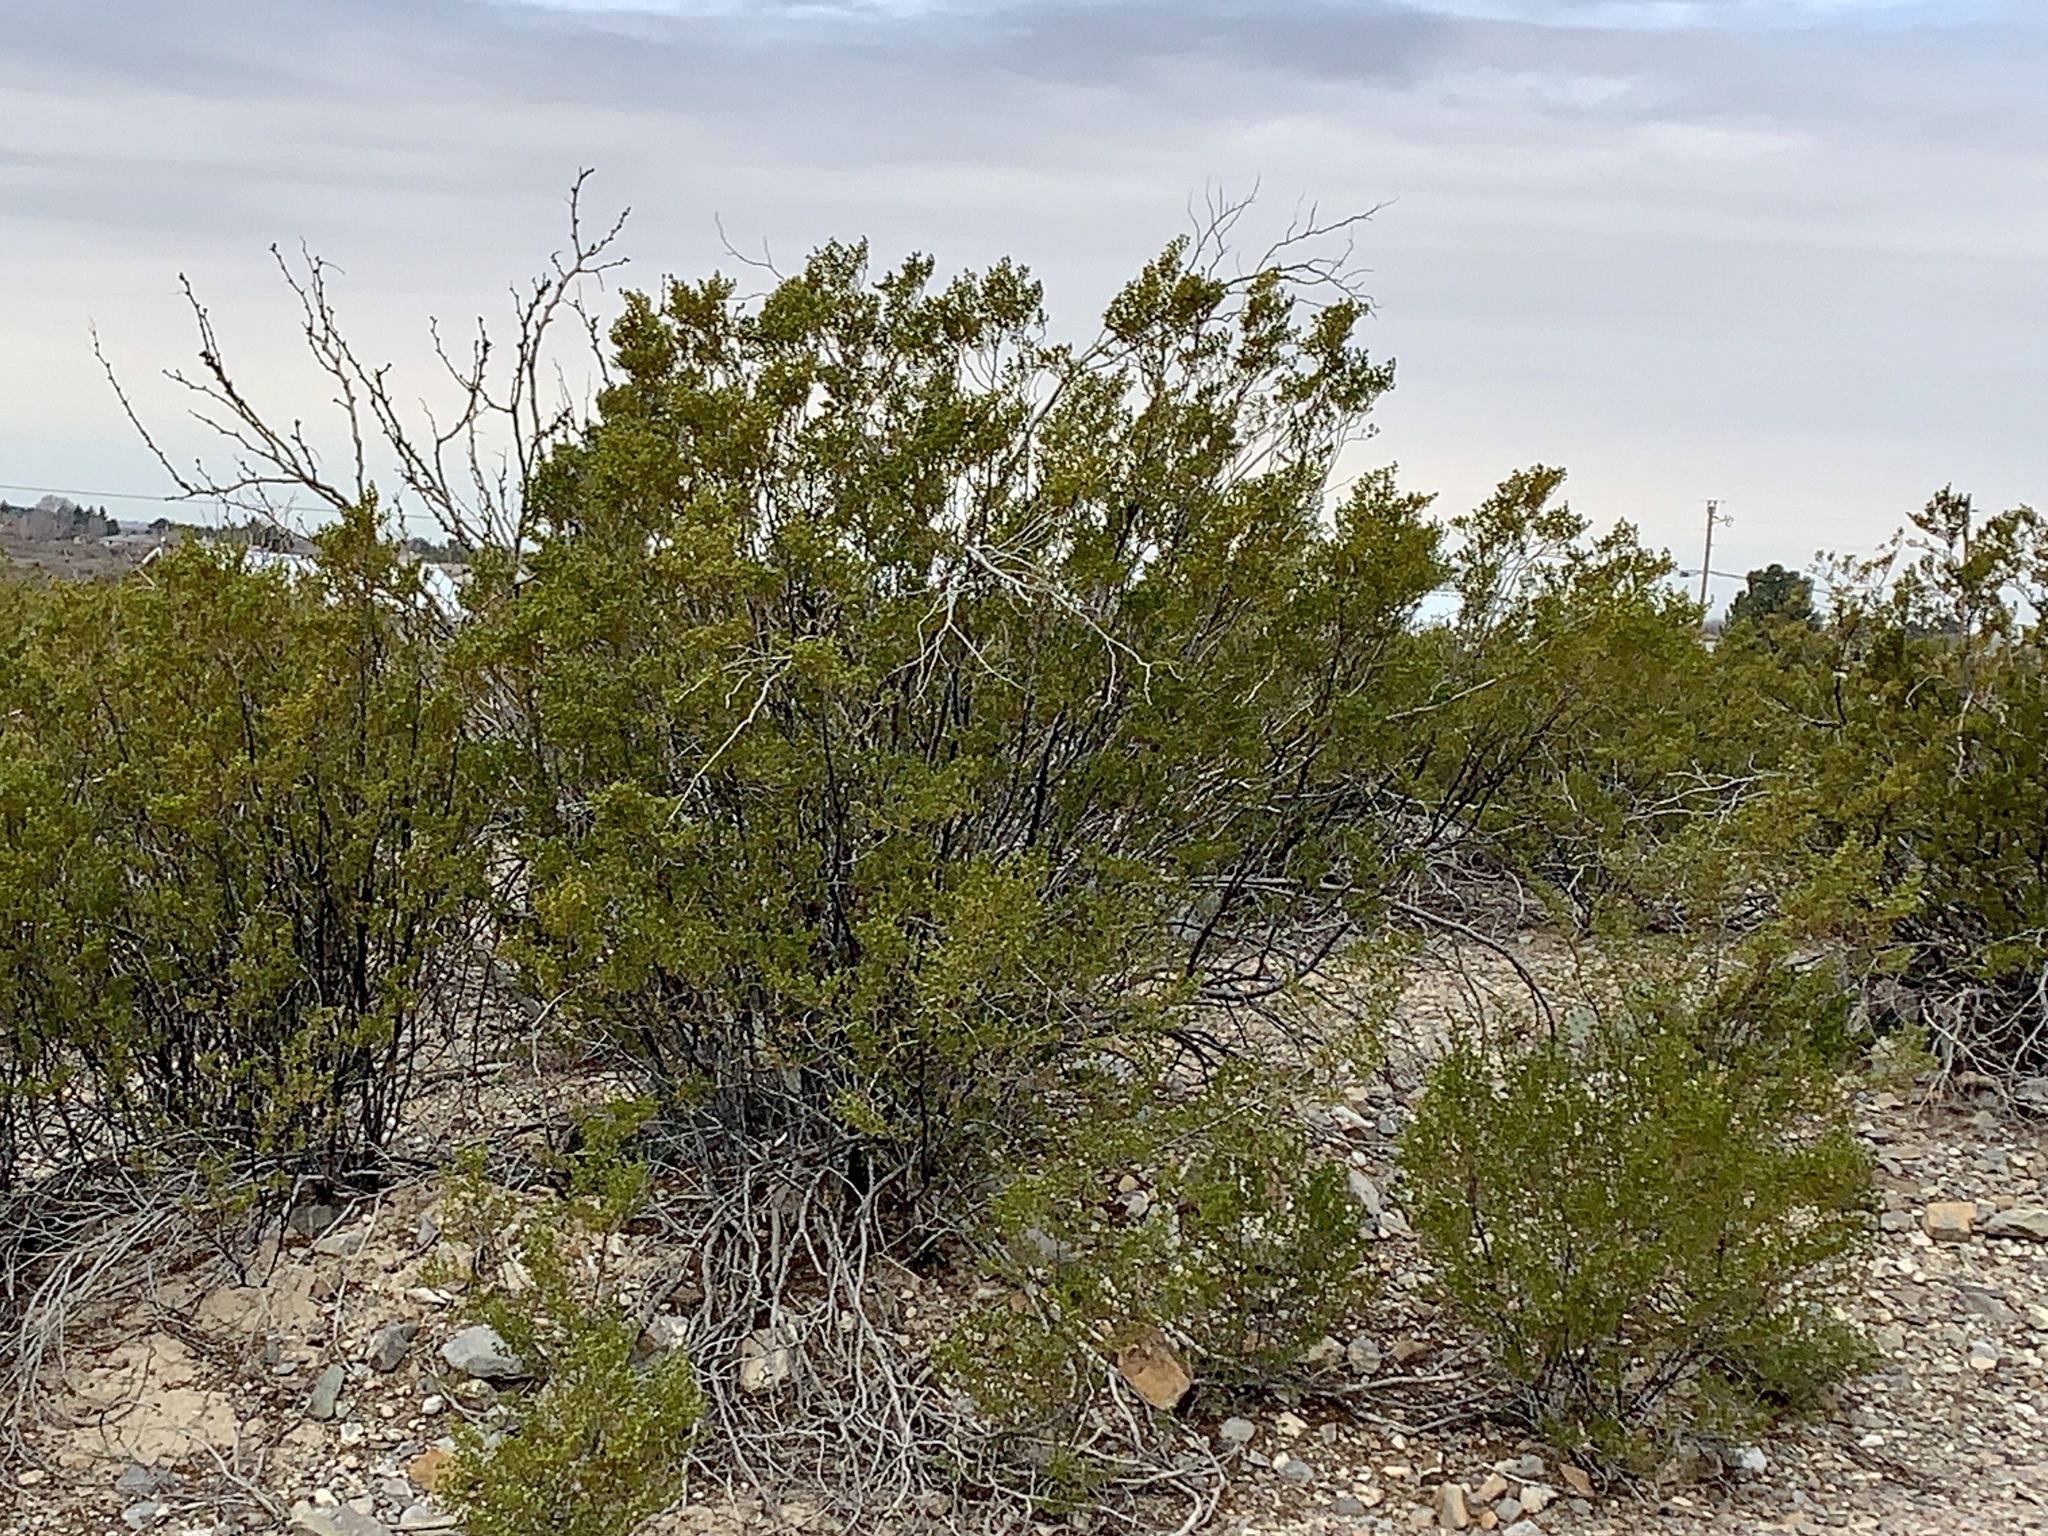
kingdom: Plantae
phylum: Tracheophyta
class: Magnoliopsida
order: Zygophyllales
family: Zygophyllaceae
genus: Larrea
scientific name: Larrea tridentata
